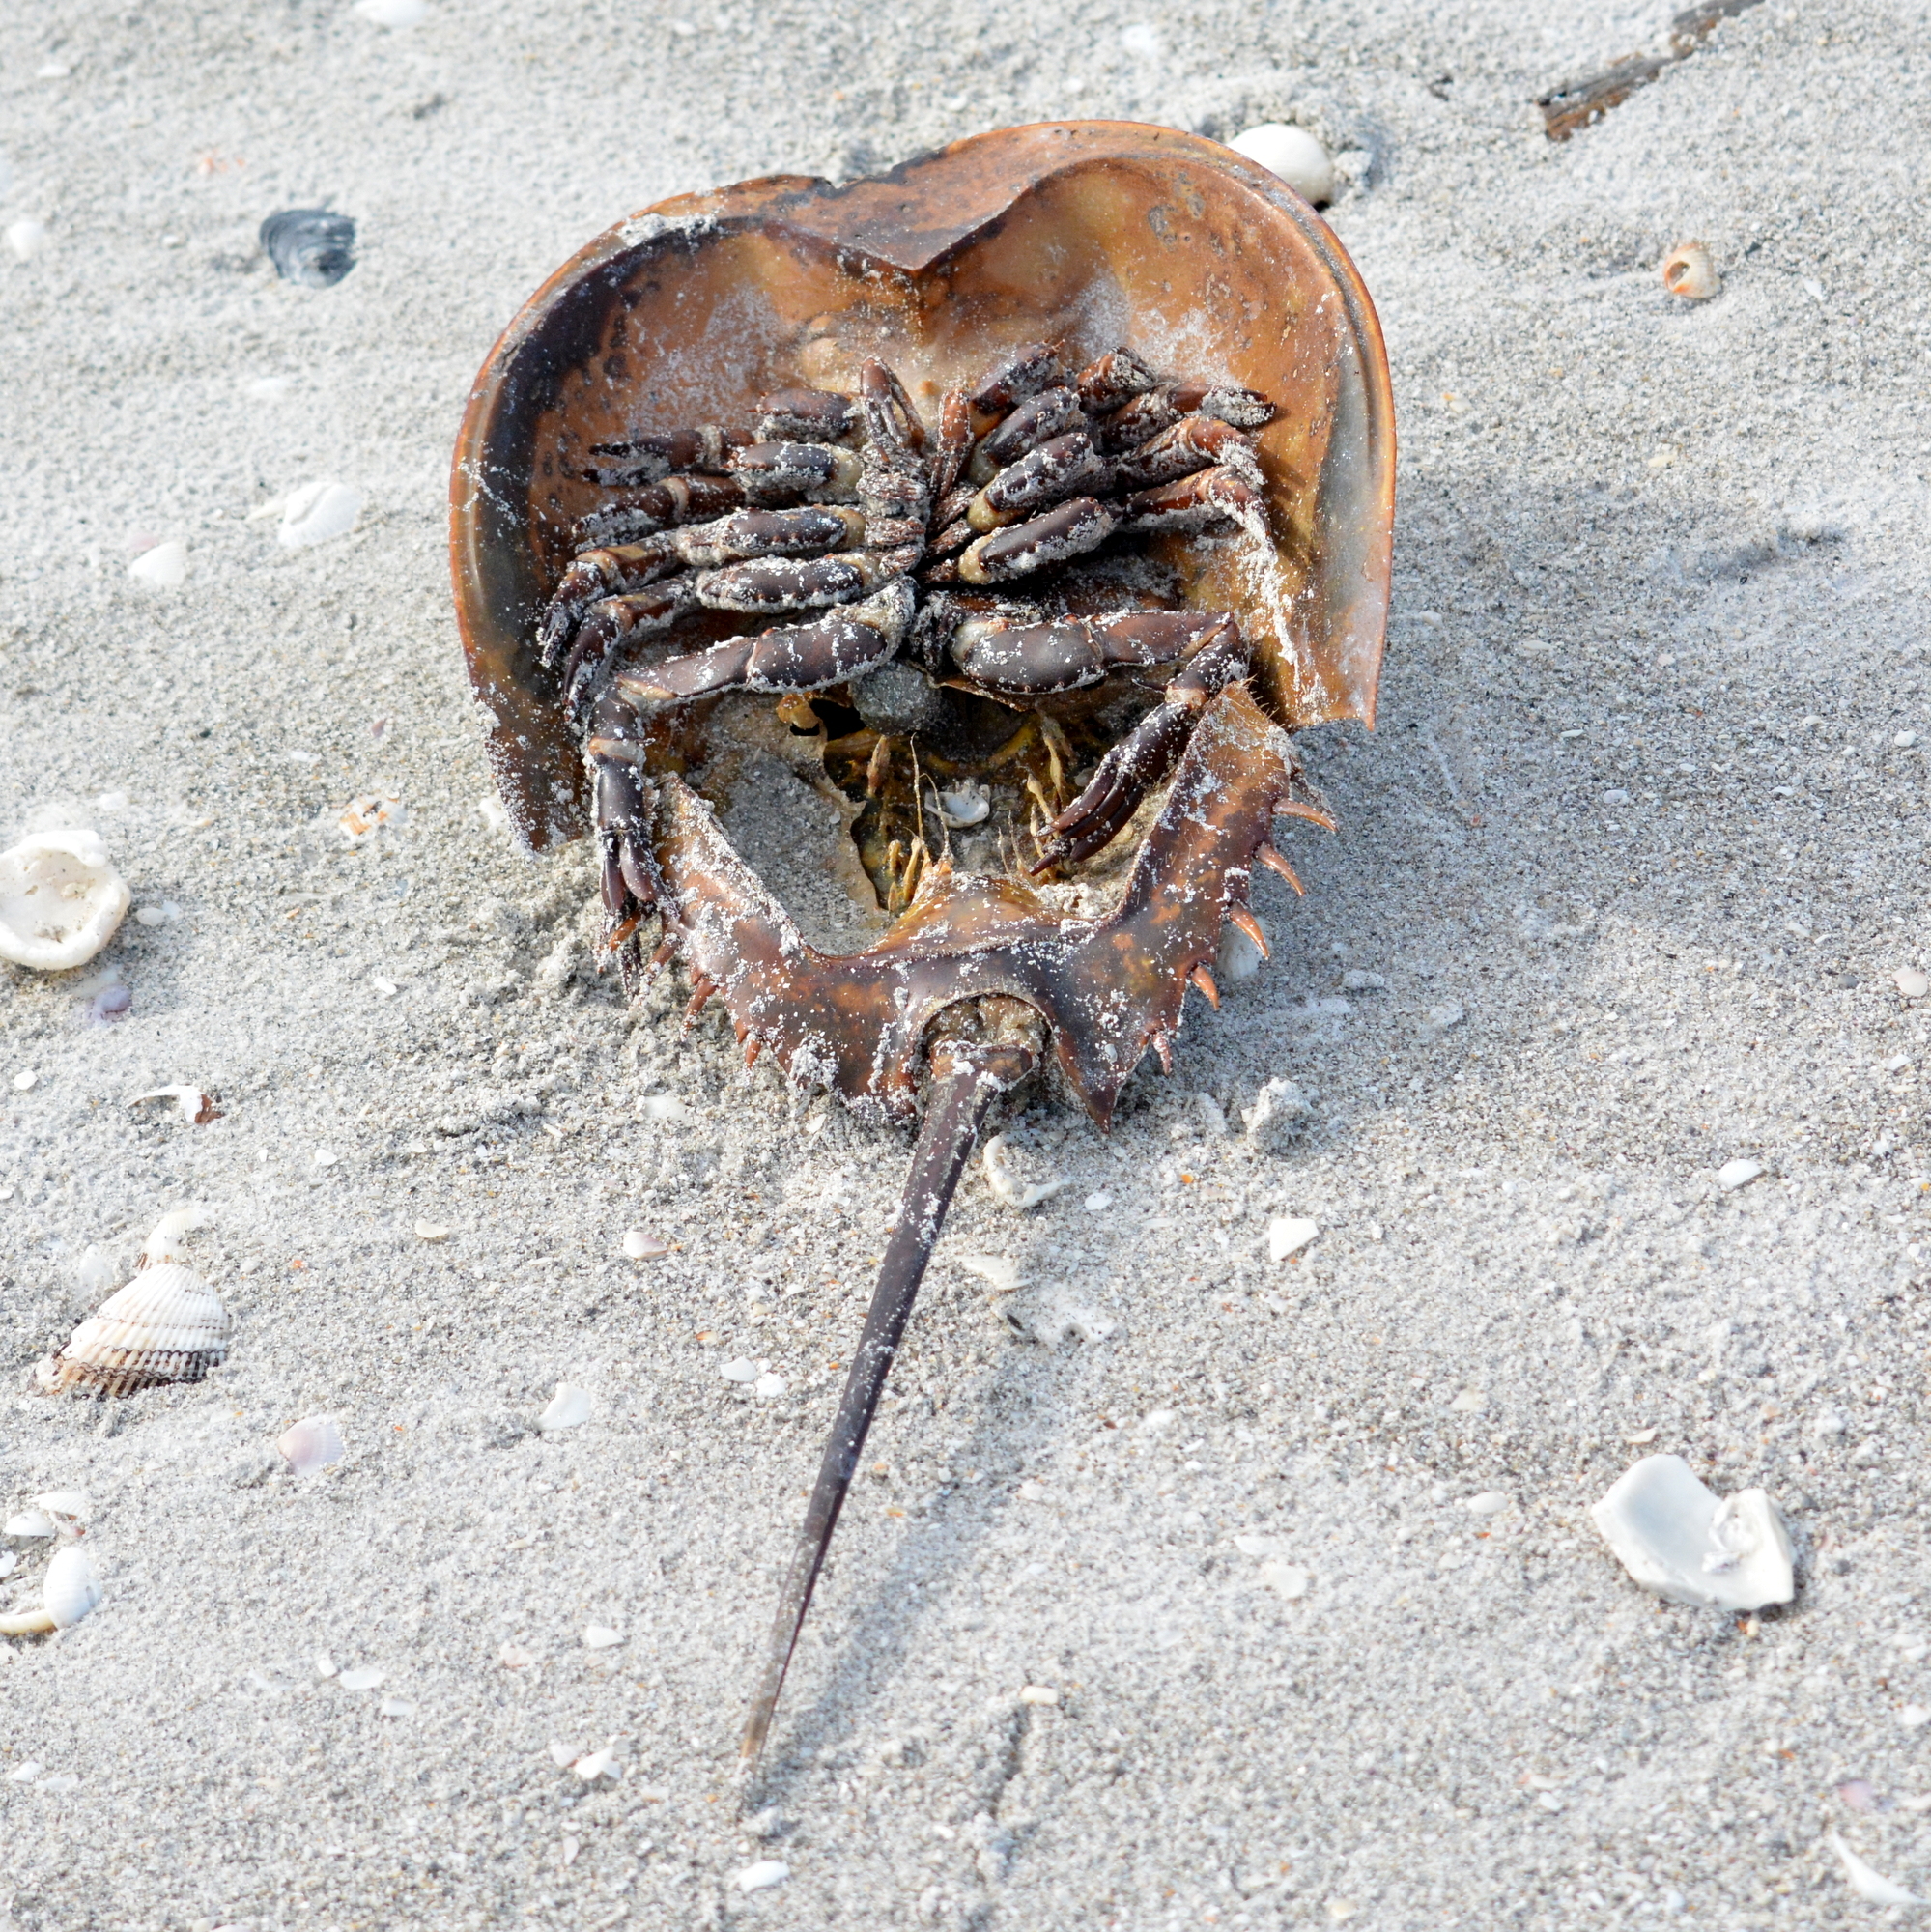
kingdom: Animalia
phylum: Arthropoda
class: Merostomata
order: Xiphosurida
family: Limulidae
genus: Limulus
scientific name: Limulus polyphemus
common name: Horseshoe crab
